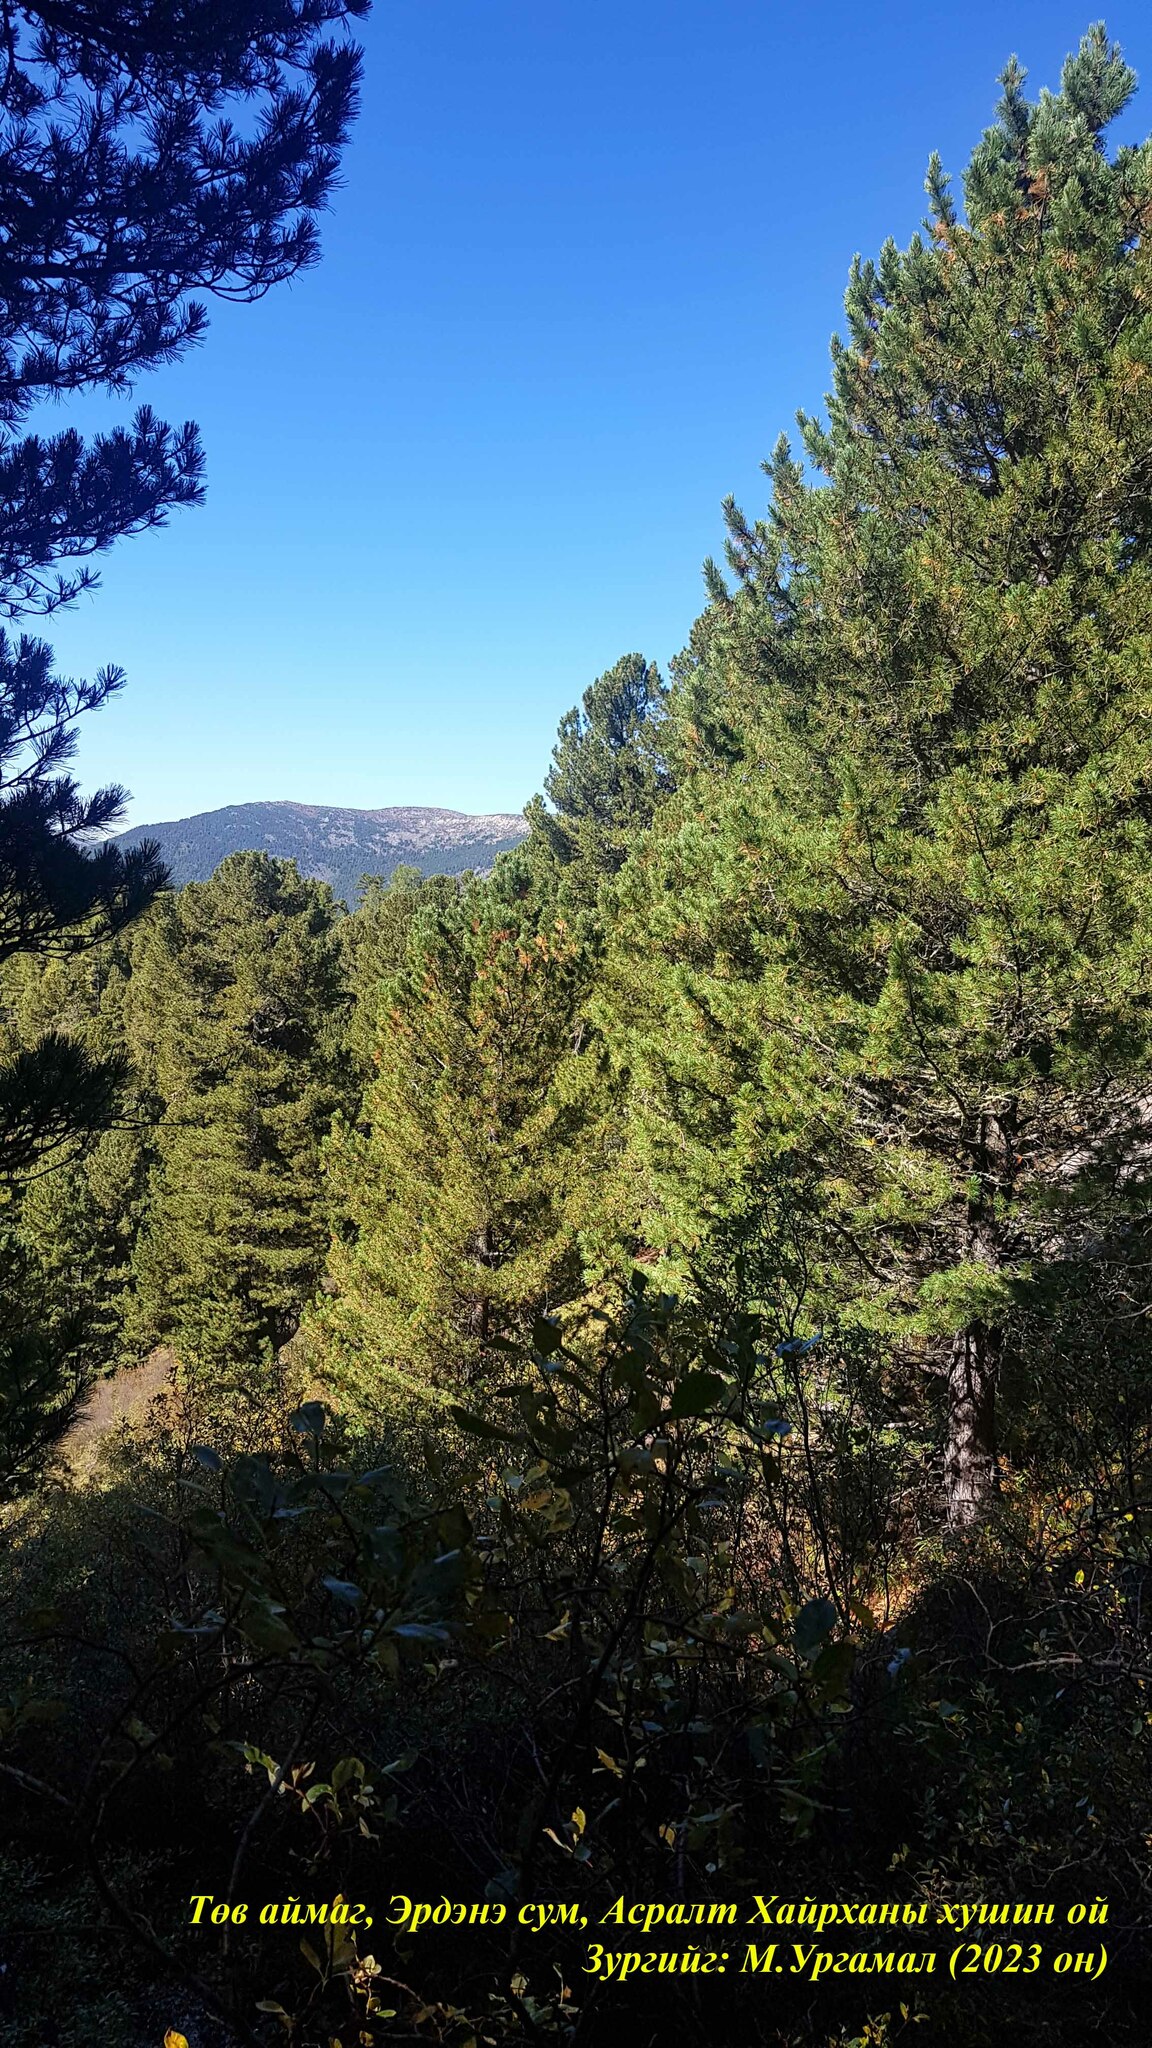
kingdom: Plantae
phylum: Tracheophyta
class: Pinopsida
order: Pinales
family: Pinaceae
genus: Pinus
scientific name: Pinus sibirica
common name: Siberian pine
